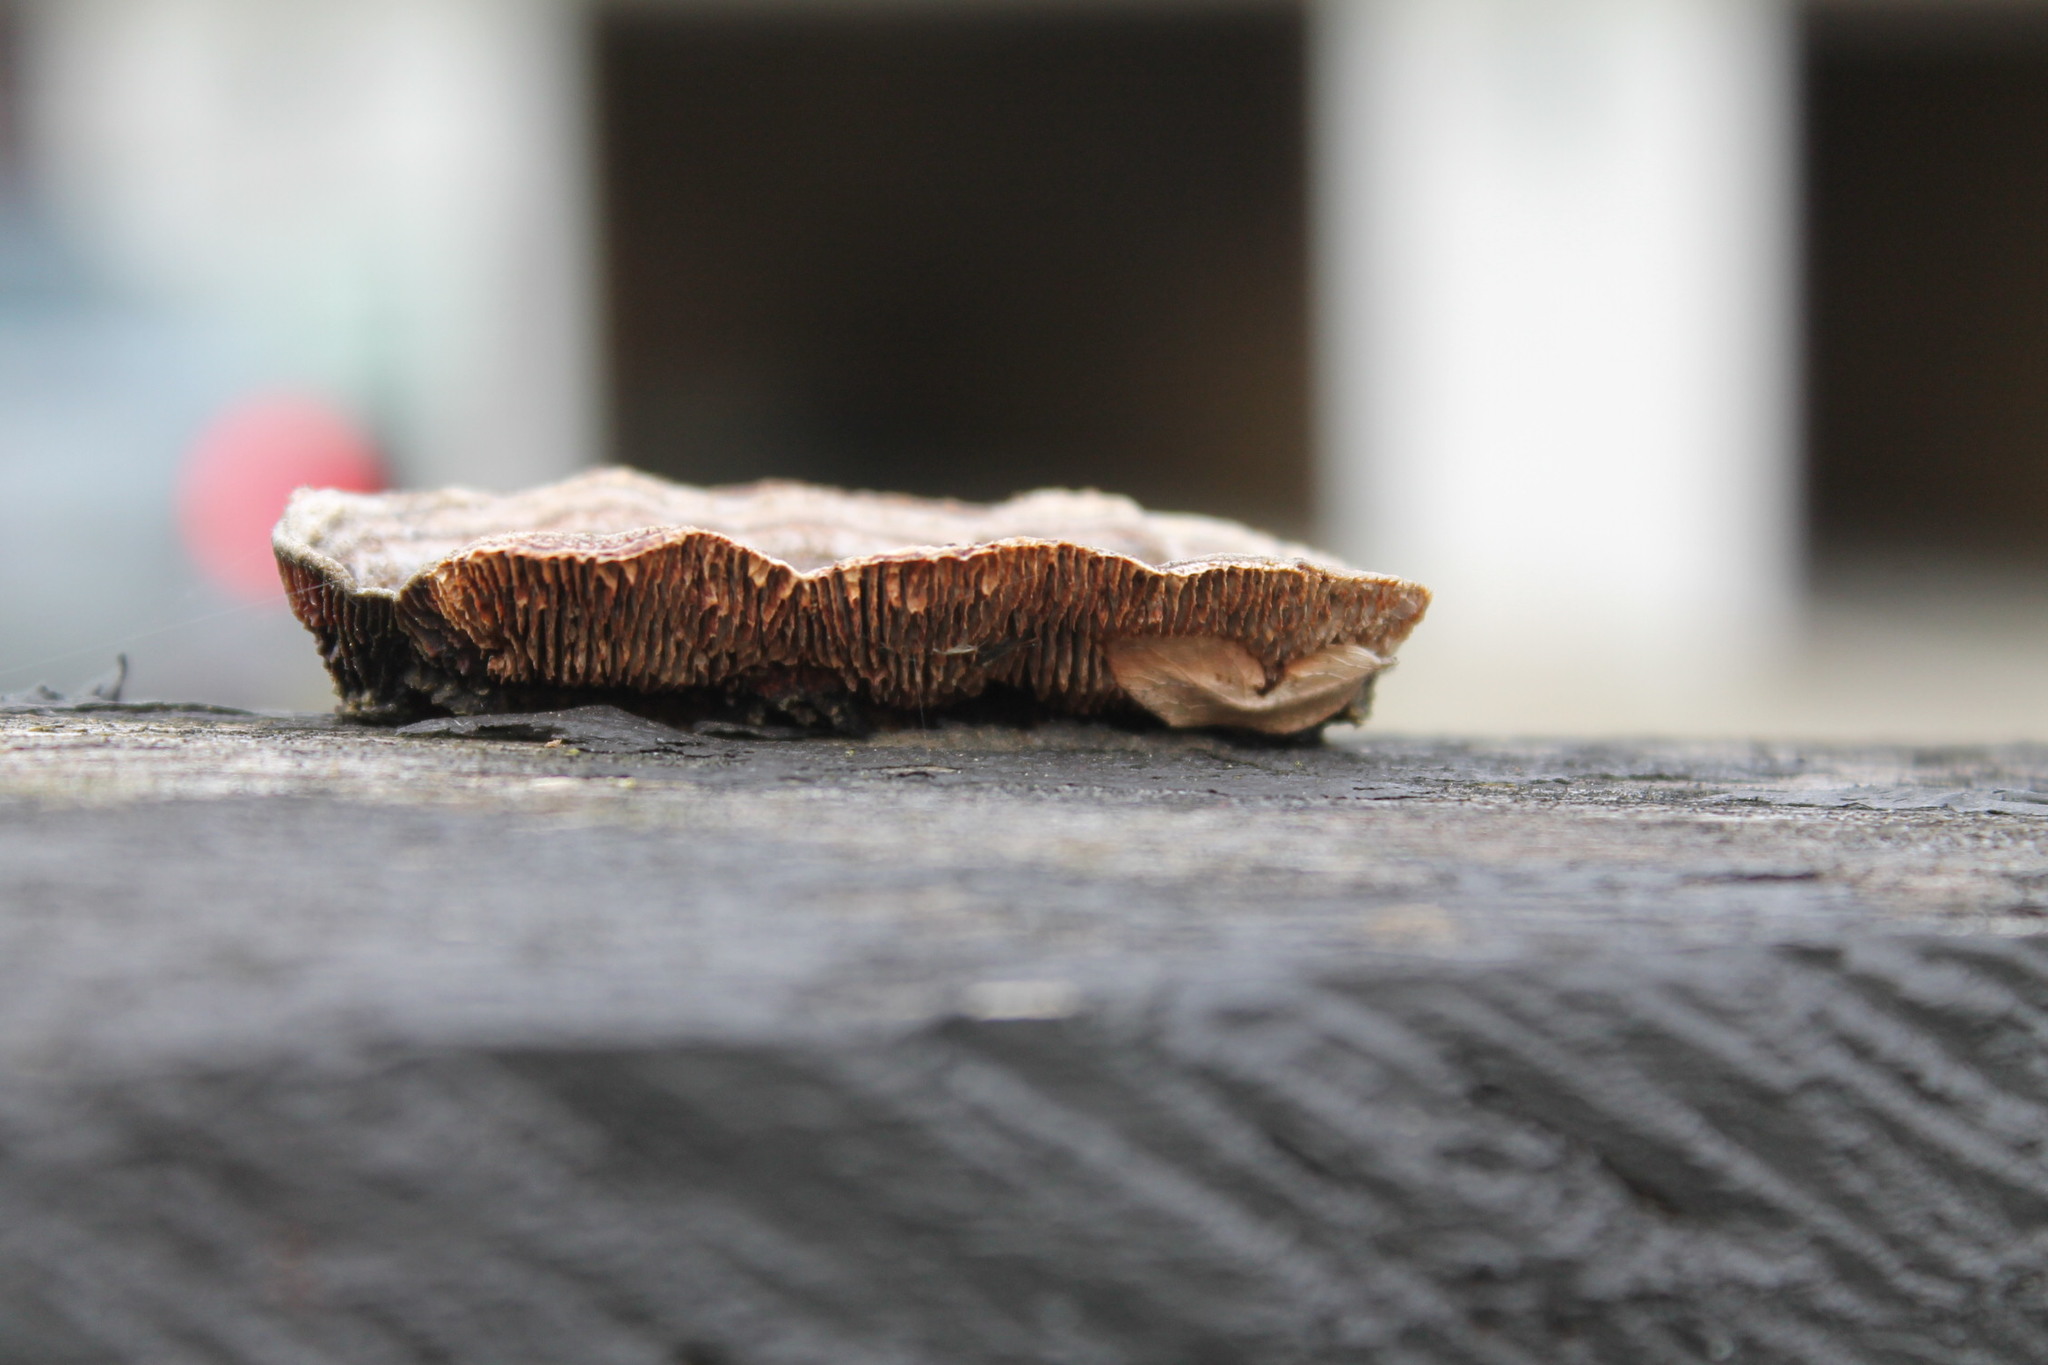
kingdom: Fungi
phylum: Basidiomycota
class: Agaricomycetes
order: Gloeophyllales
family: Gloeophyllaceae
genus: Gloeophyllum
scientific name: Gloeophyllum sepiarium
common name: Conifer mazegill
